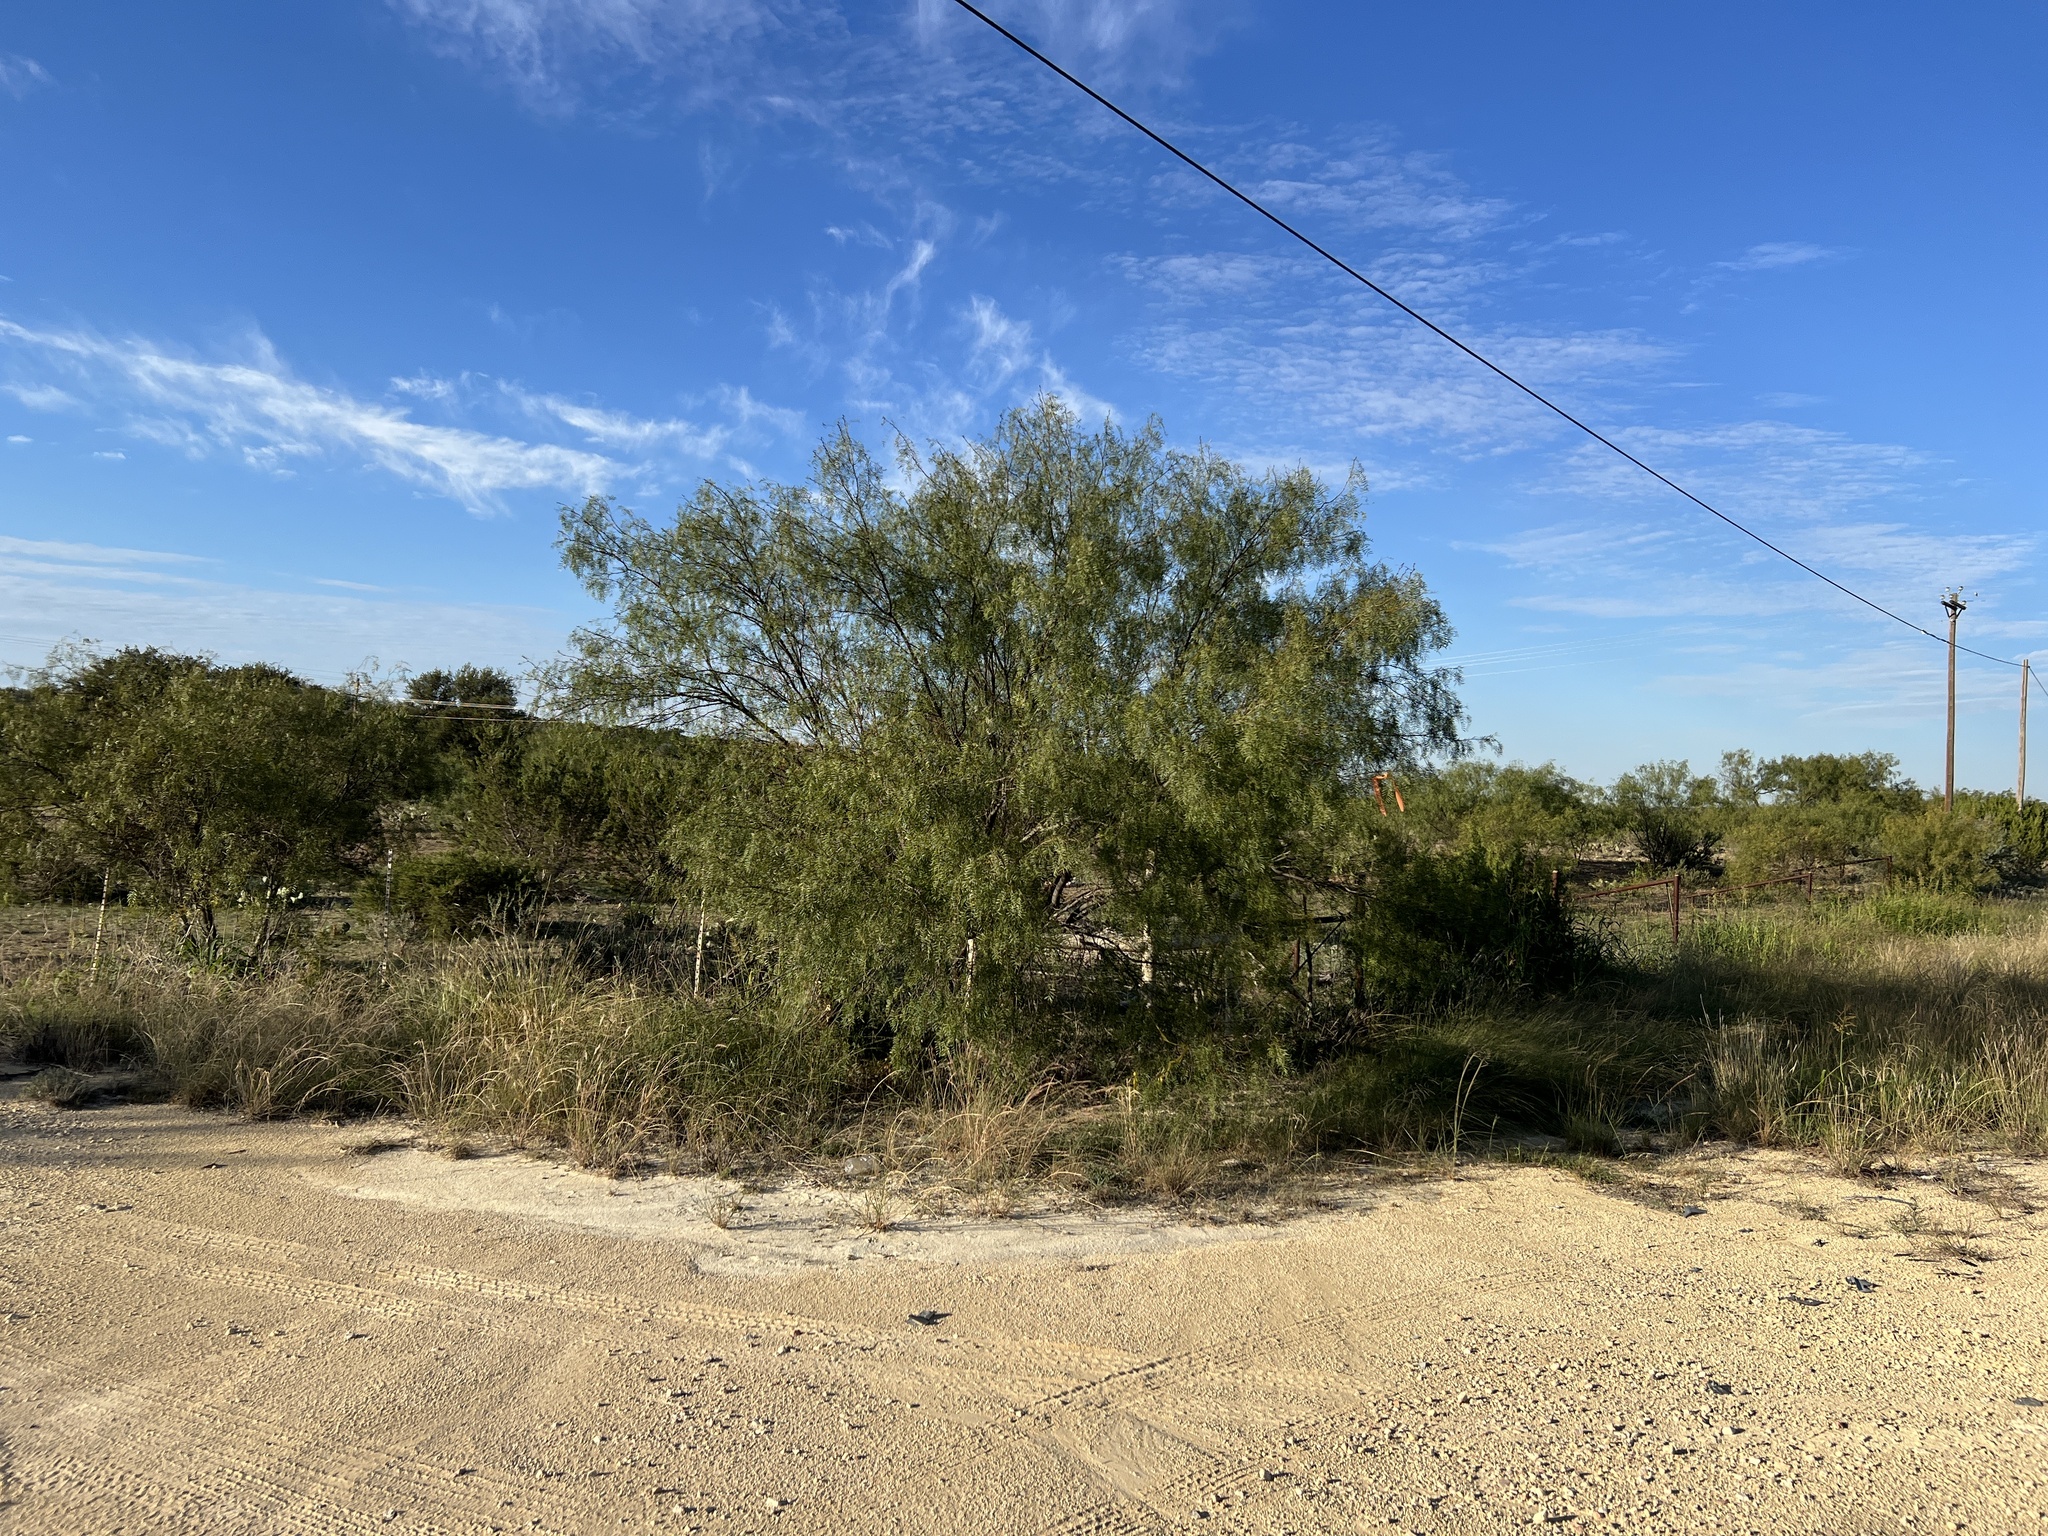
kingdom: Plantae
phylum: Tracheophyta
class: Magnoliopsida
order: Fabales
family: Fabaceae
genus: Prosopis
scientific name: Prosopis glandulosa
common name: Honey mesquite
